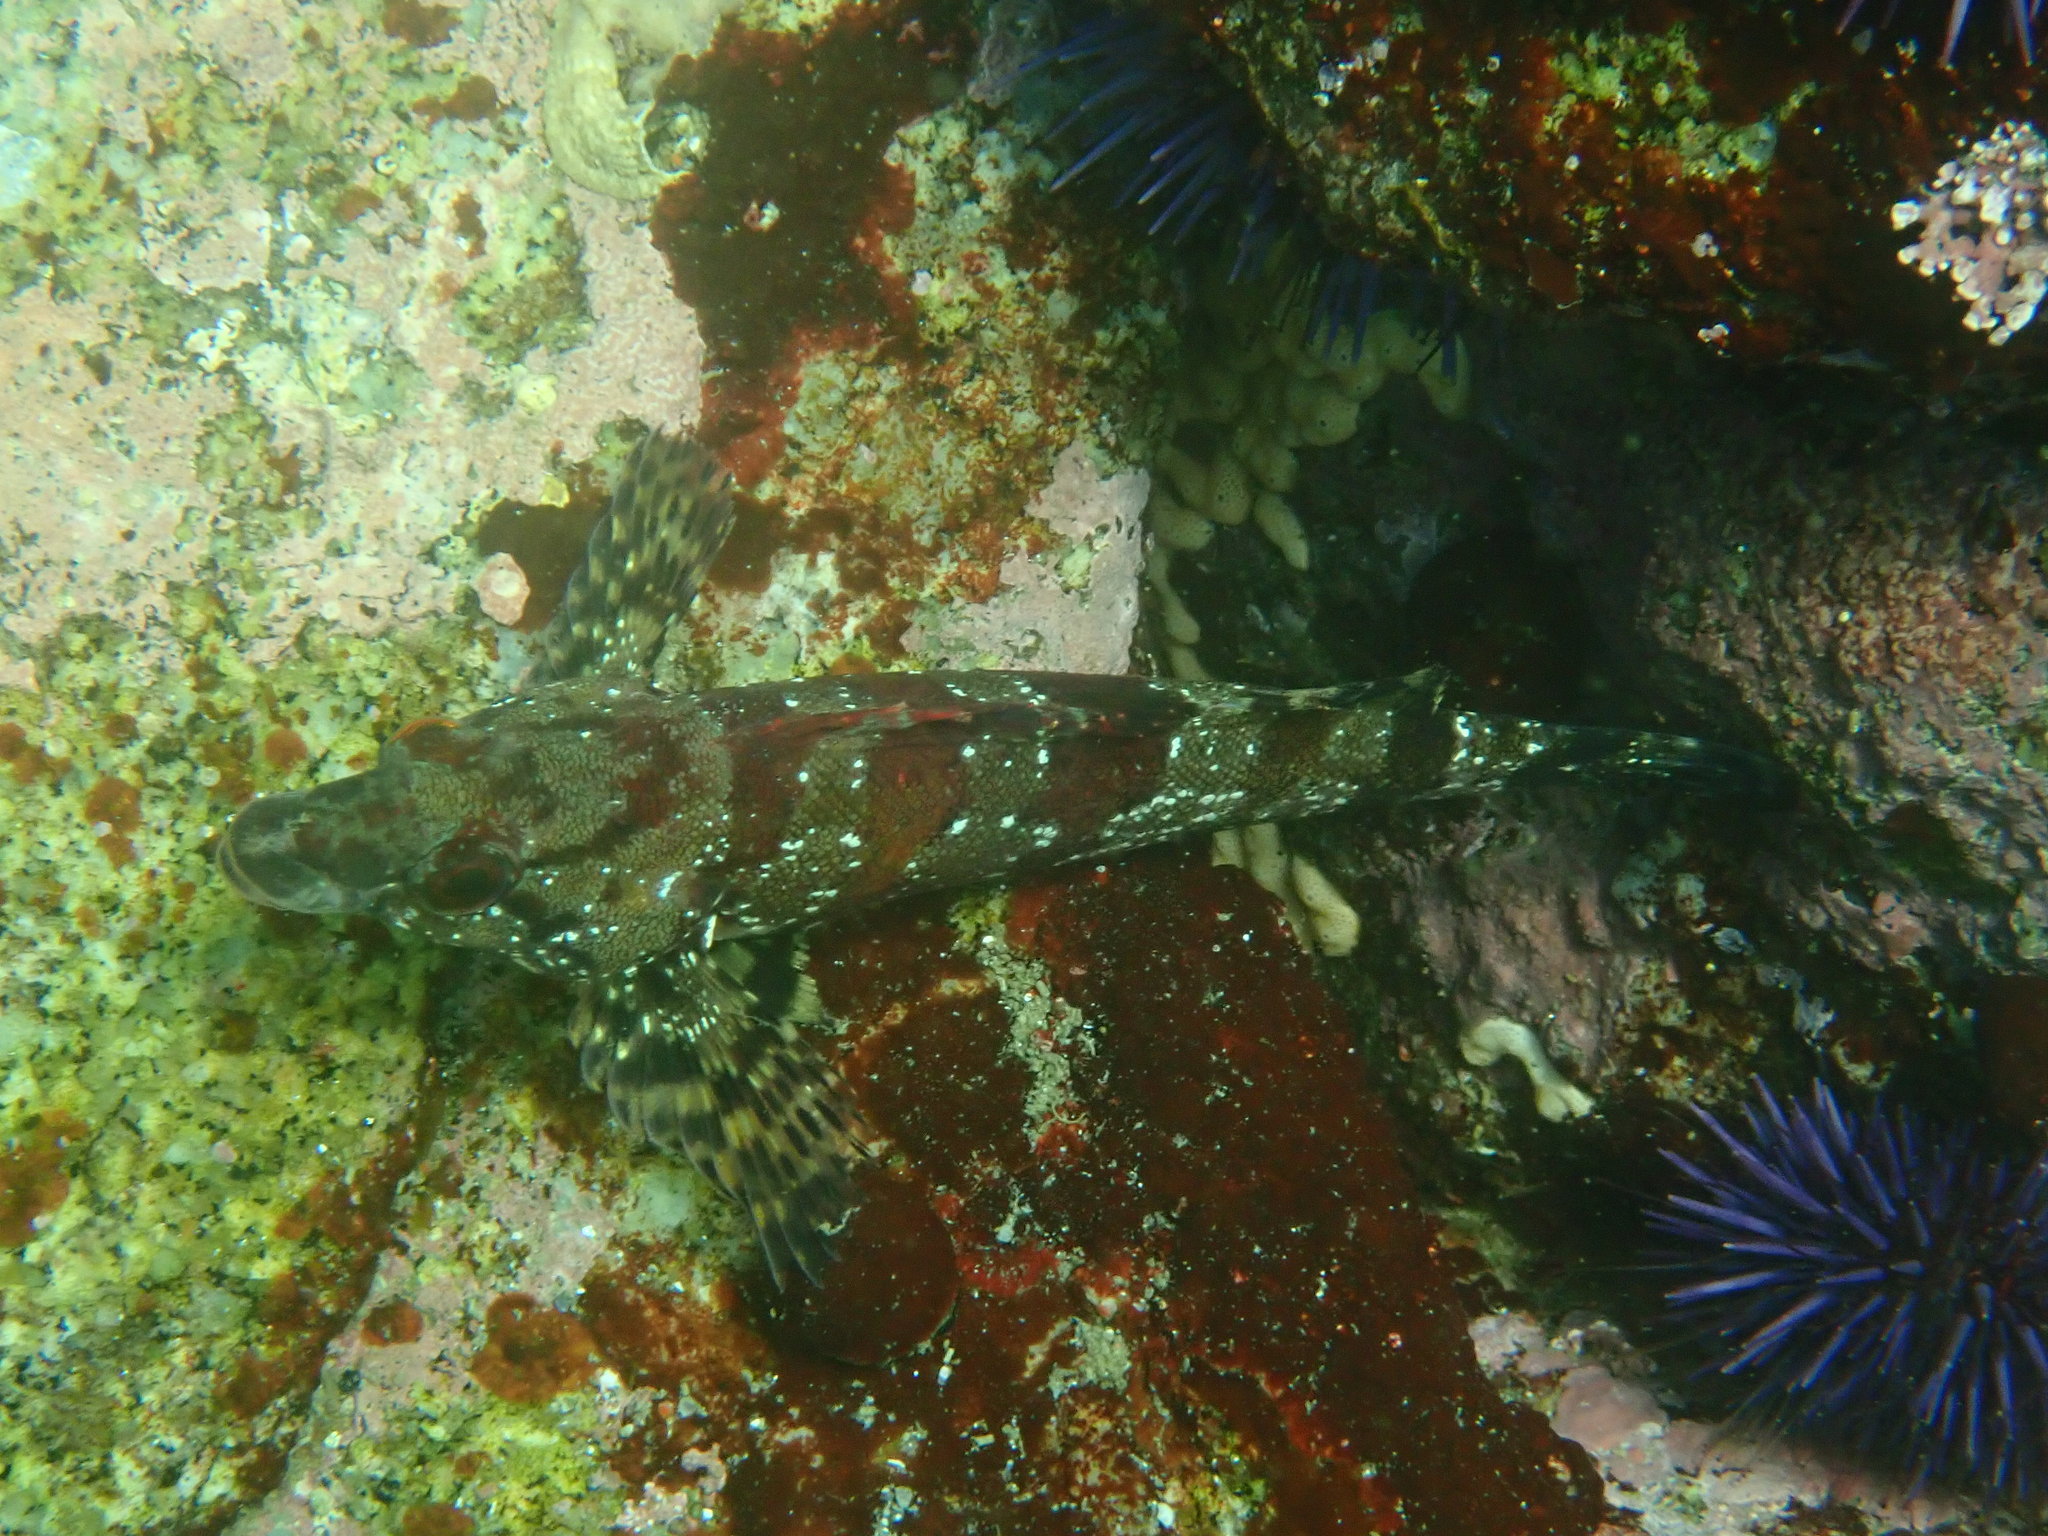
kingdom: Animalia
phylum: Chordata
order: Scorpaeniformes
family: Hexagrammidae
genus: Oxylebius
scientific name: Oxylebius pictus
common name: Painted greenling
